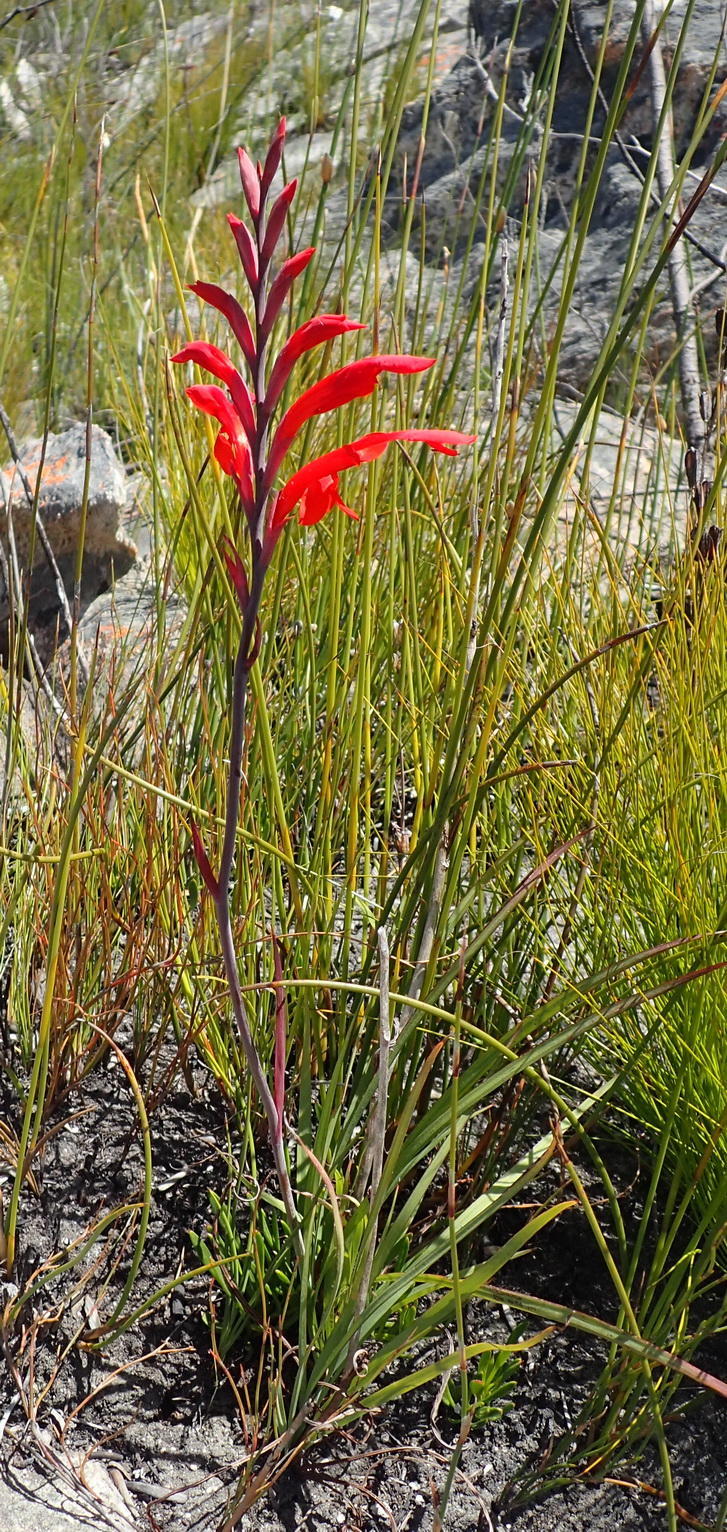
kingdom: Plantae
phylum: Tracheophyta
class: Liliopsida
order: Asparagales
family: Iridaceae
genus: Tritoniopsis
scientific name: Tritoniopsis caffra
